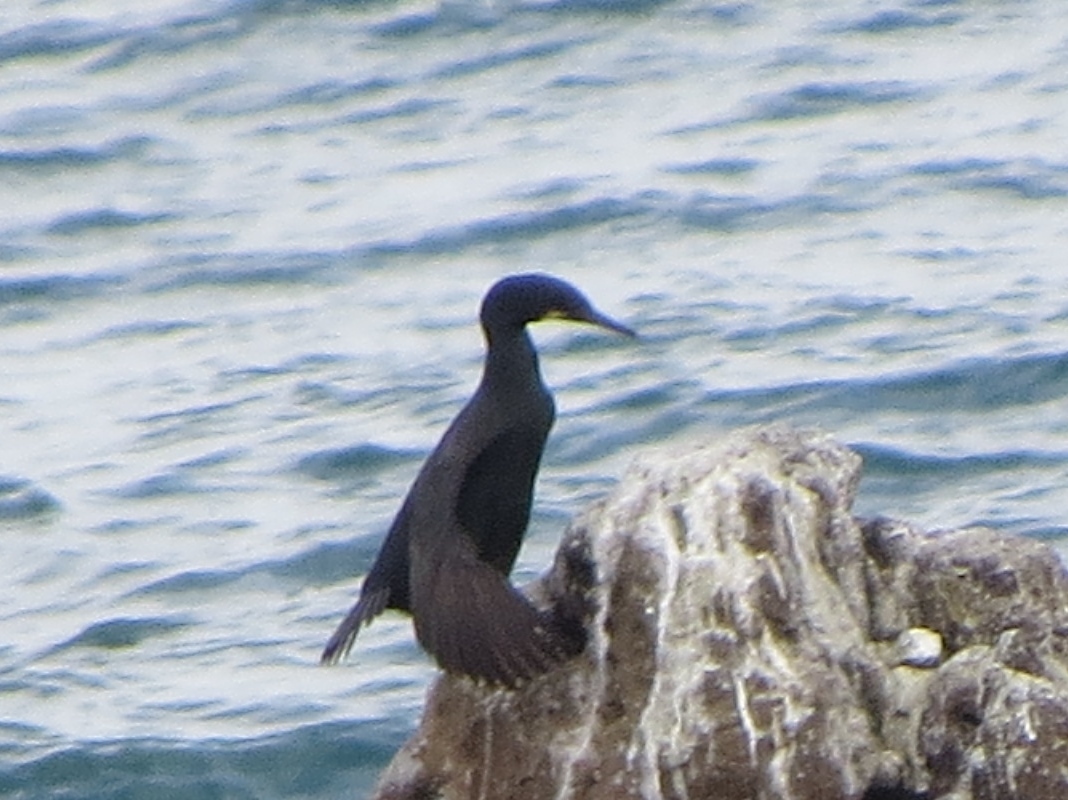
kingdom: Animalia
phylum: Chordata
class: Aves
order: Suliformes
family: Phalacrocoracidae
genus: Urile
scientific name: Urile penicillatus
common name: Brandt's cormorant
